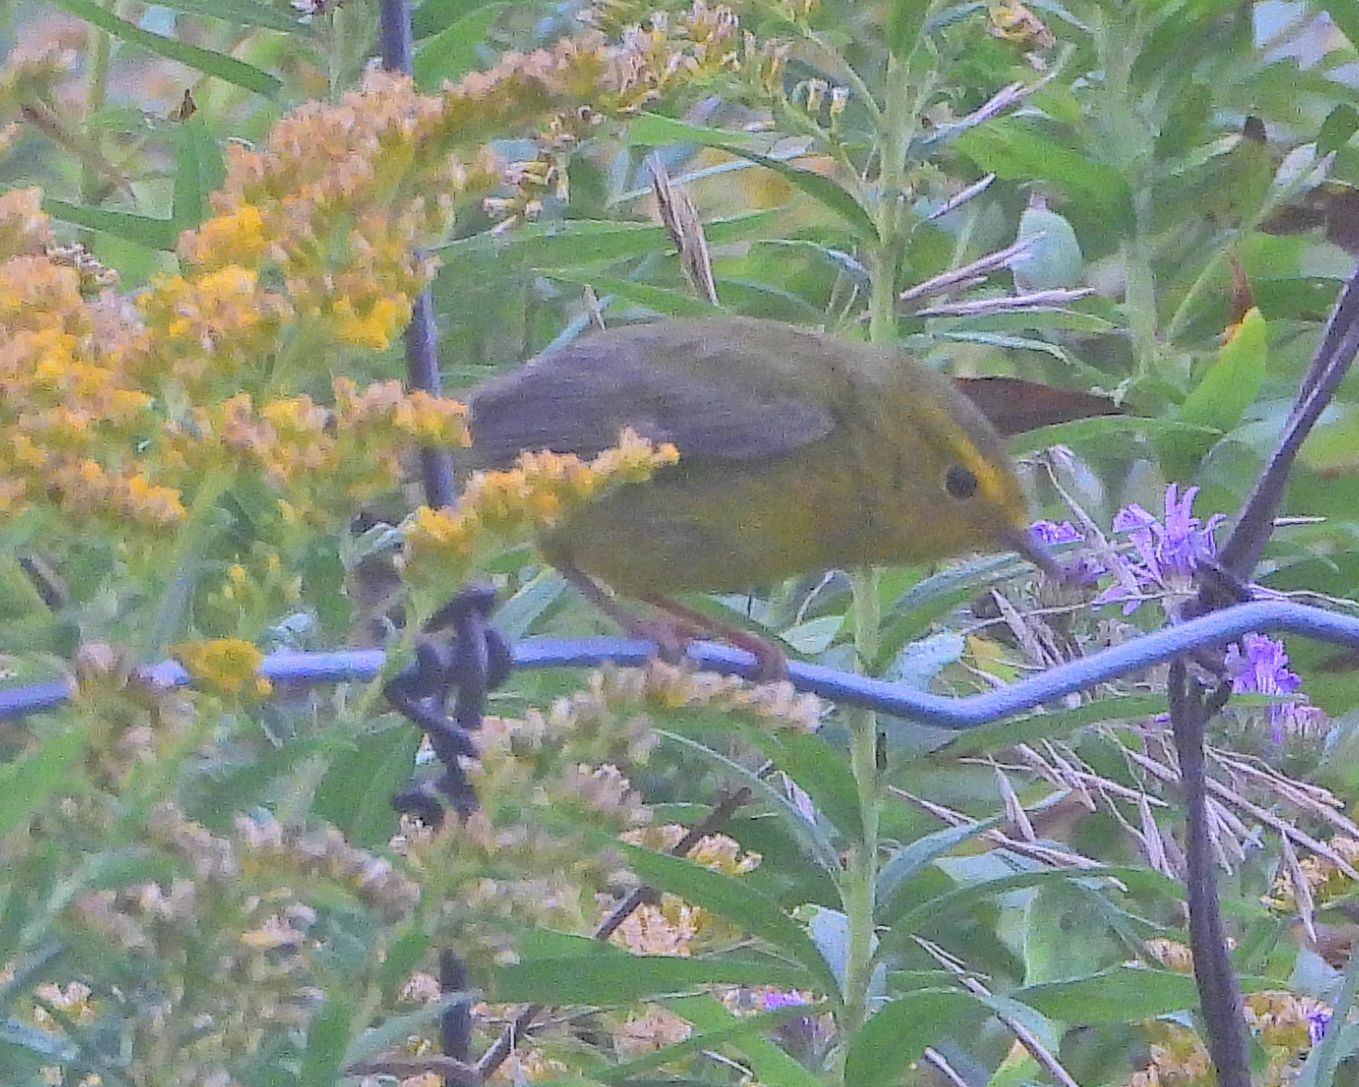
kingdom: Animalia
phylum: Chordata
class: Aves
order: Passeriformes
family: Parulidae
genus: Cardellina
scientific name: Cardellina pusilla
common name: Wilson's warbler
